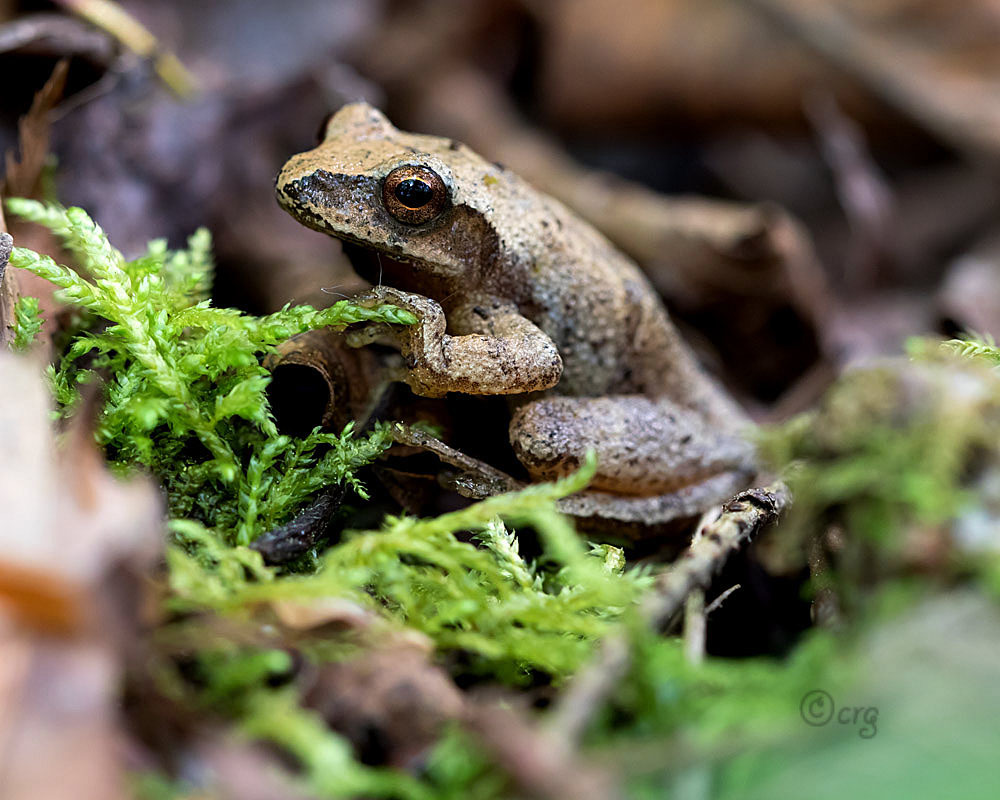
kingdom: Animalia
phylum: Chordata
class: Amphibia
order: Anura
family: Hylidae
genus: Pseudacris
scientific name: Pseudacris crucifer
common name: Spring peeper
